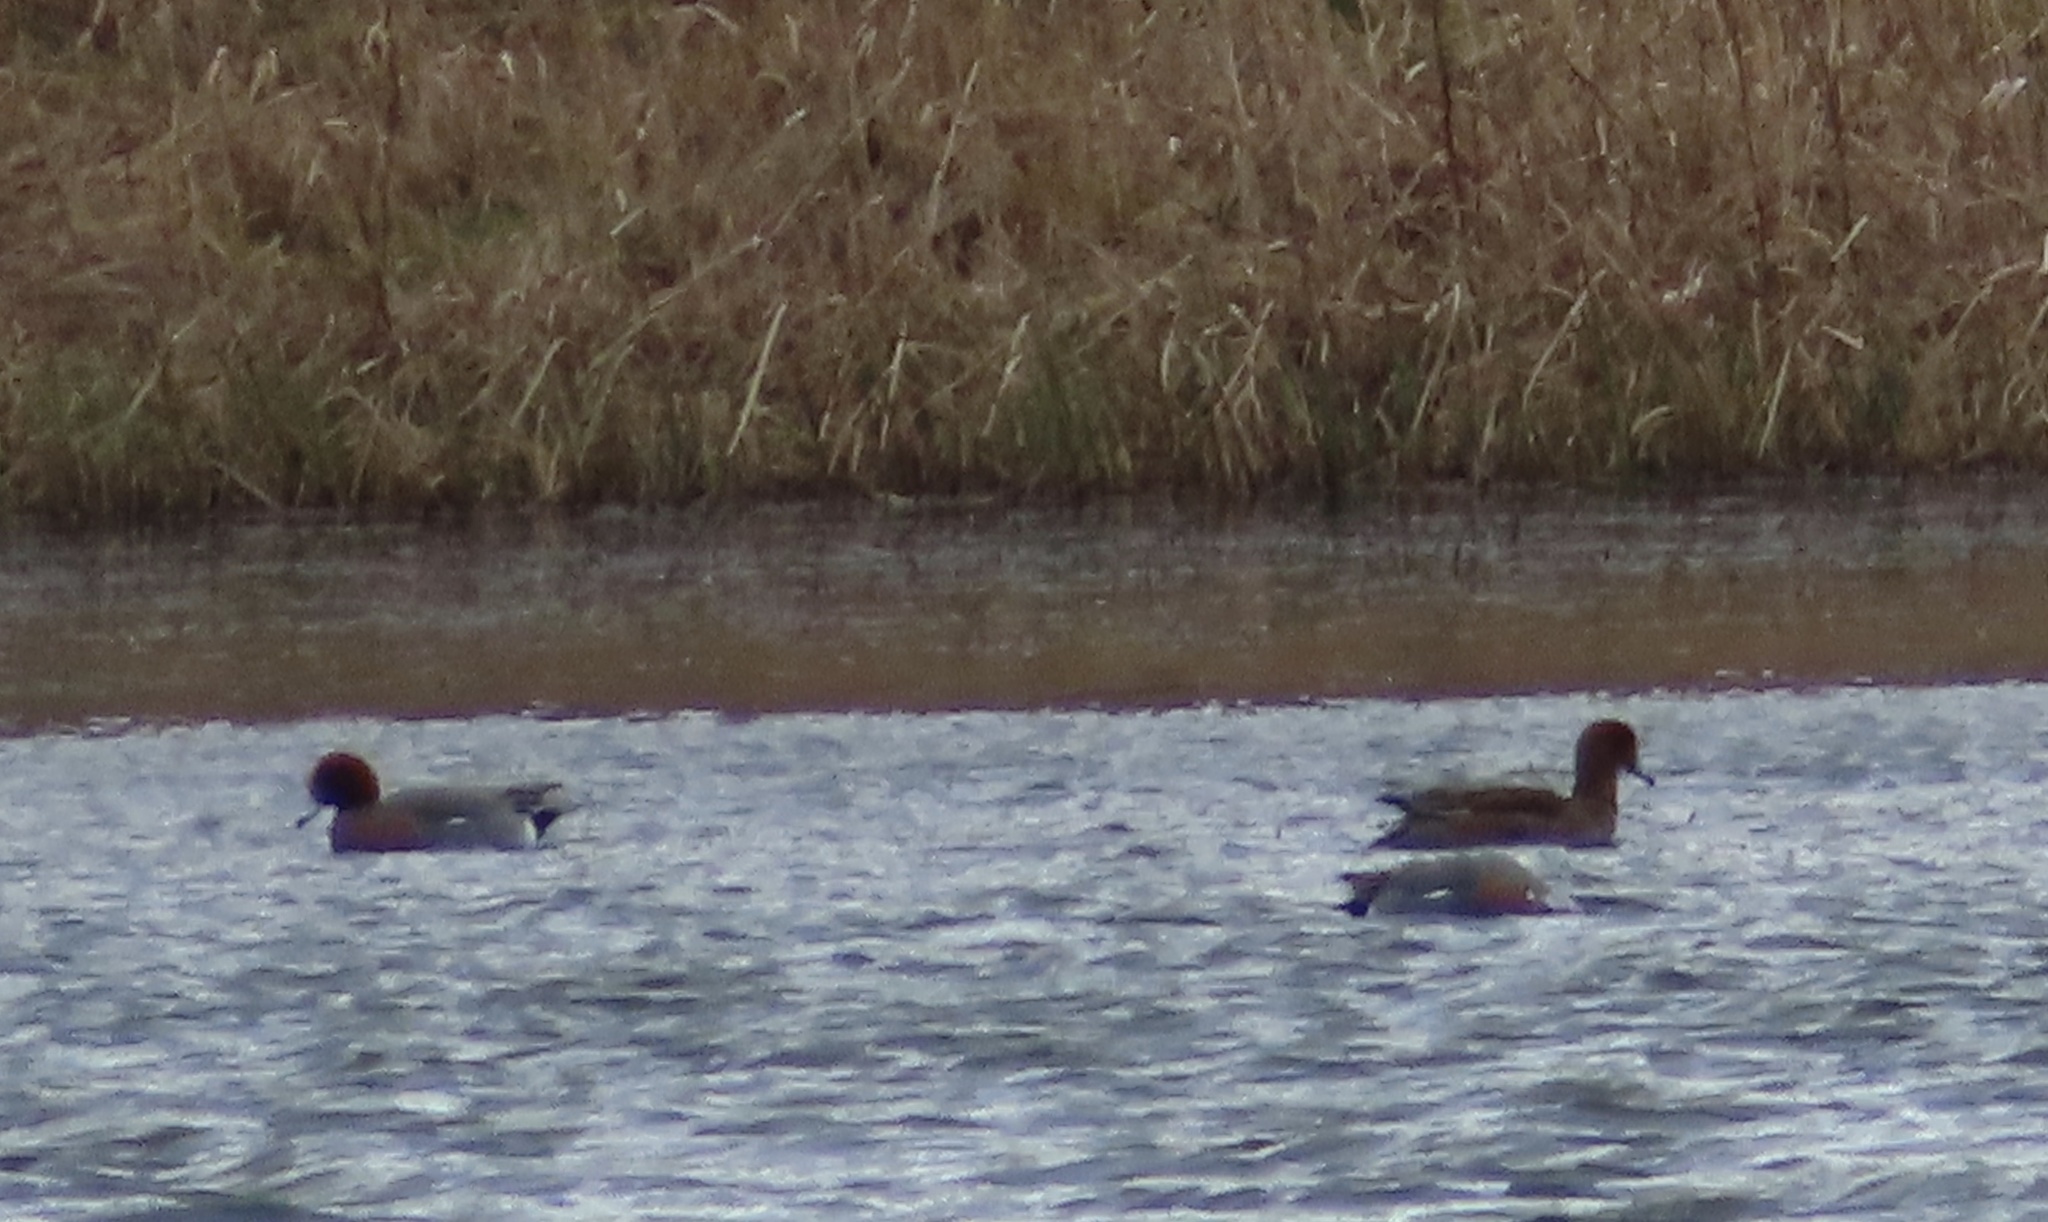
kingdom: Animalia
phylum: Chordata
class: Aves
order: Anseriformes
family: Anatidae
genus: Mareca
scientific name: Mareca penelope
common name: Eurasian wigeon
